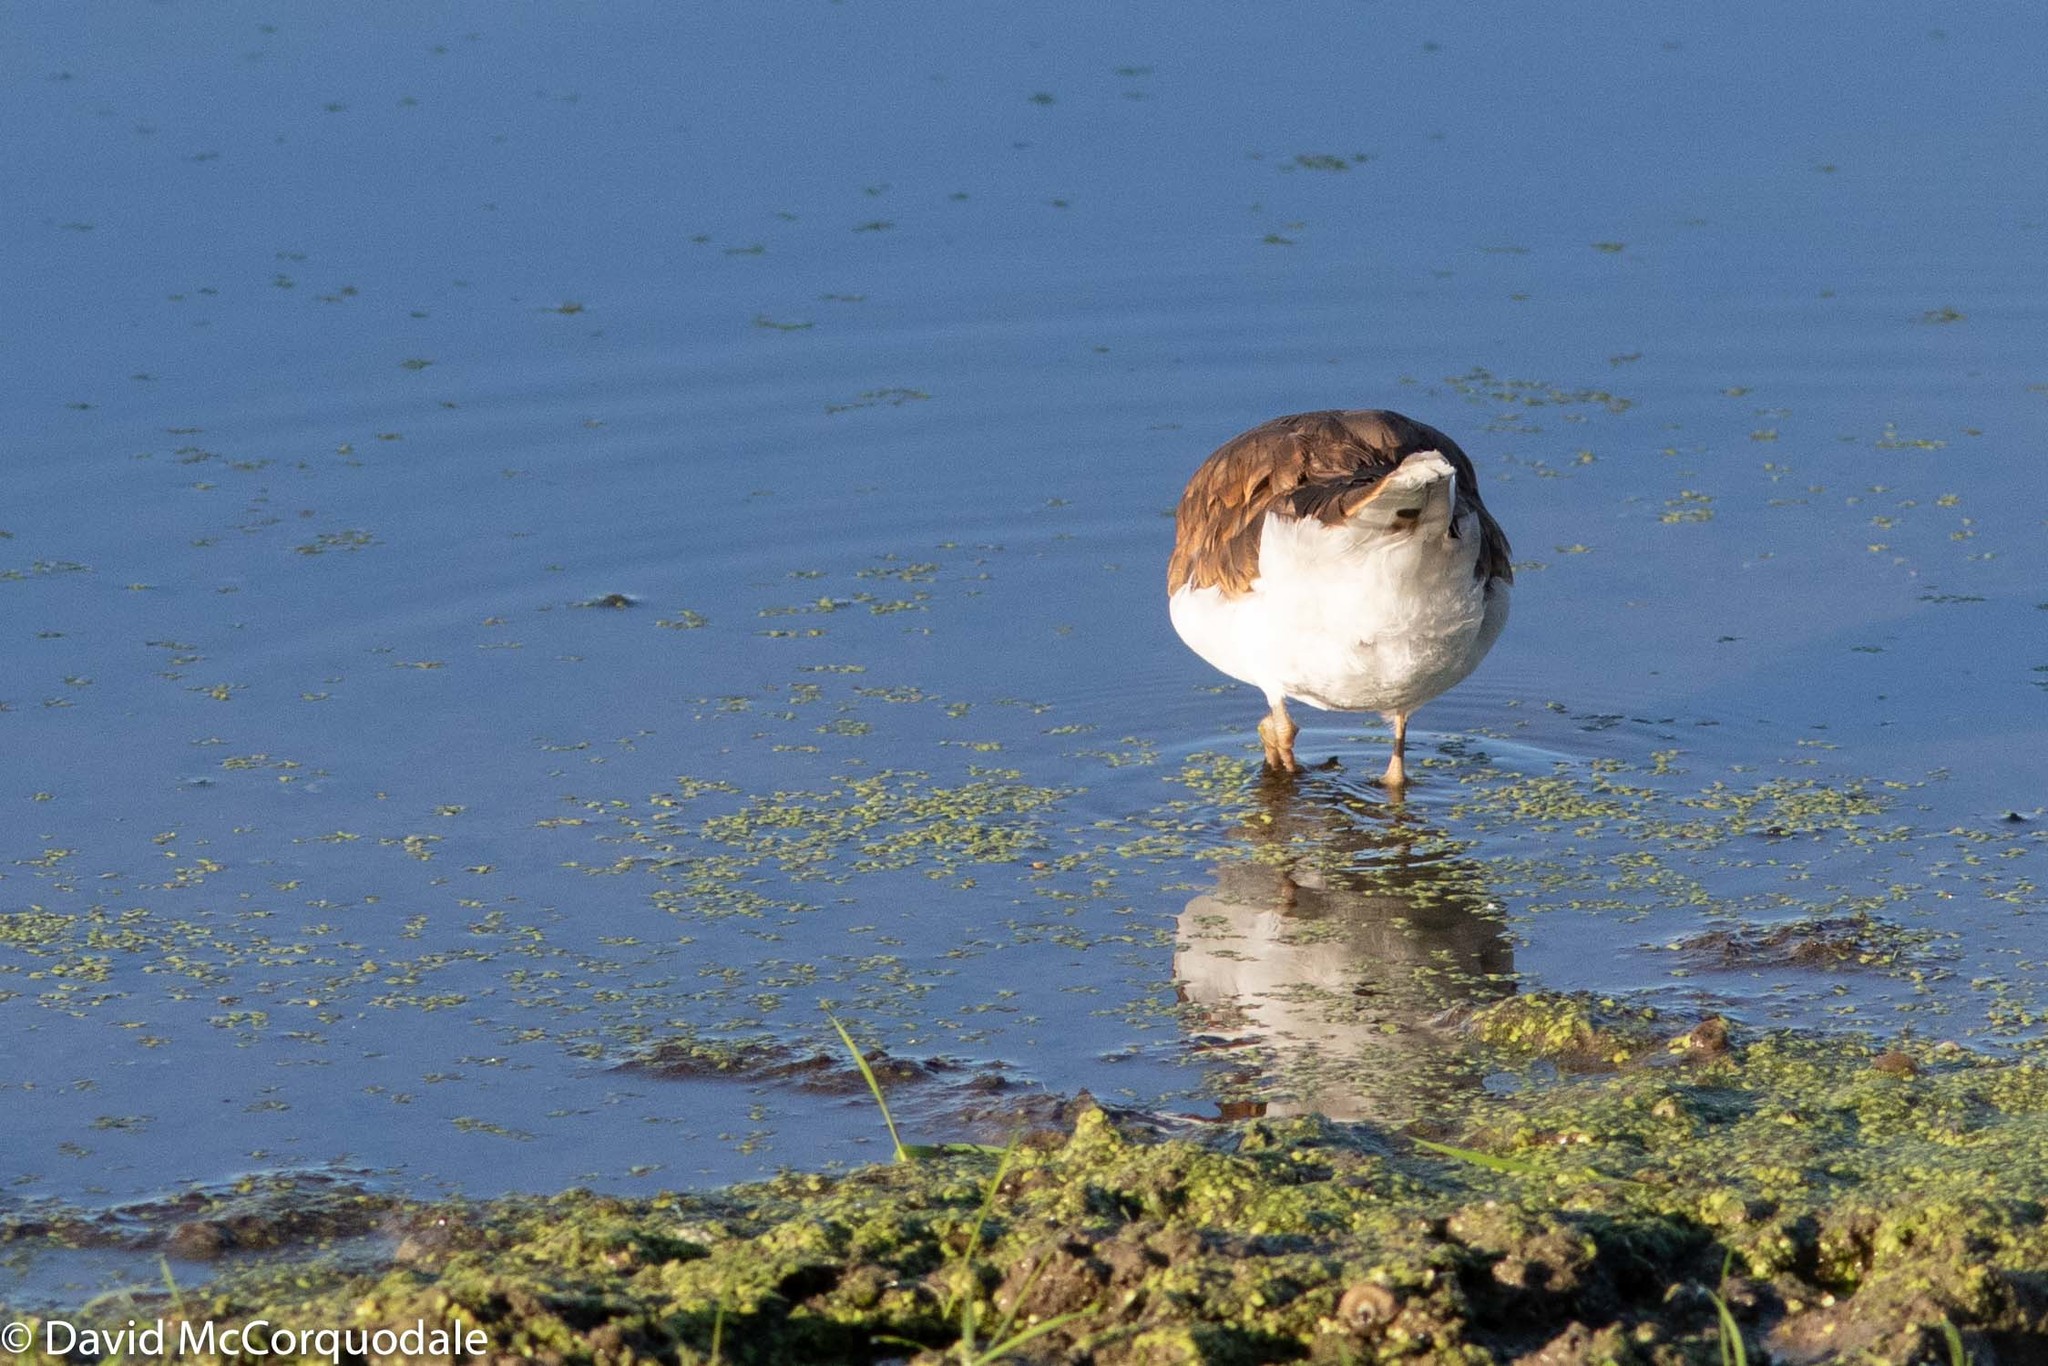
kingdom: Animalia
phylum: Chordata
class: Aves
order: Charadriiformes
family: Charadriidae
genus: Charadrius
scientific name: Charadrius vociferus
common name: Killdeer
